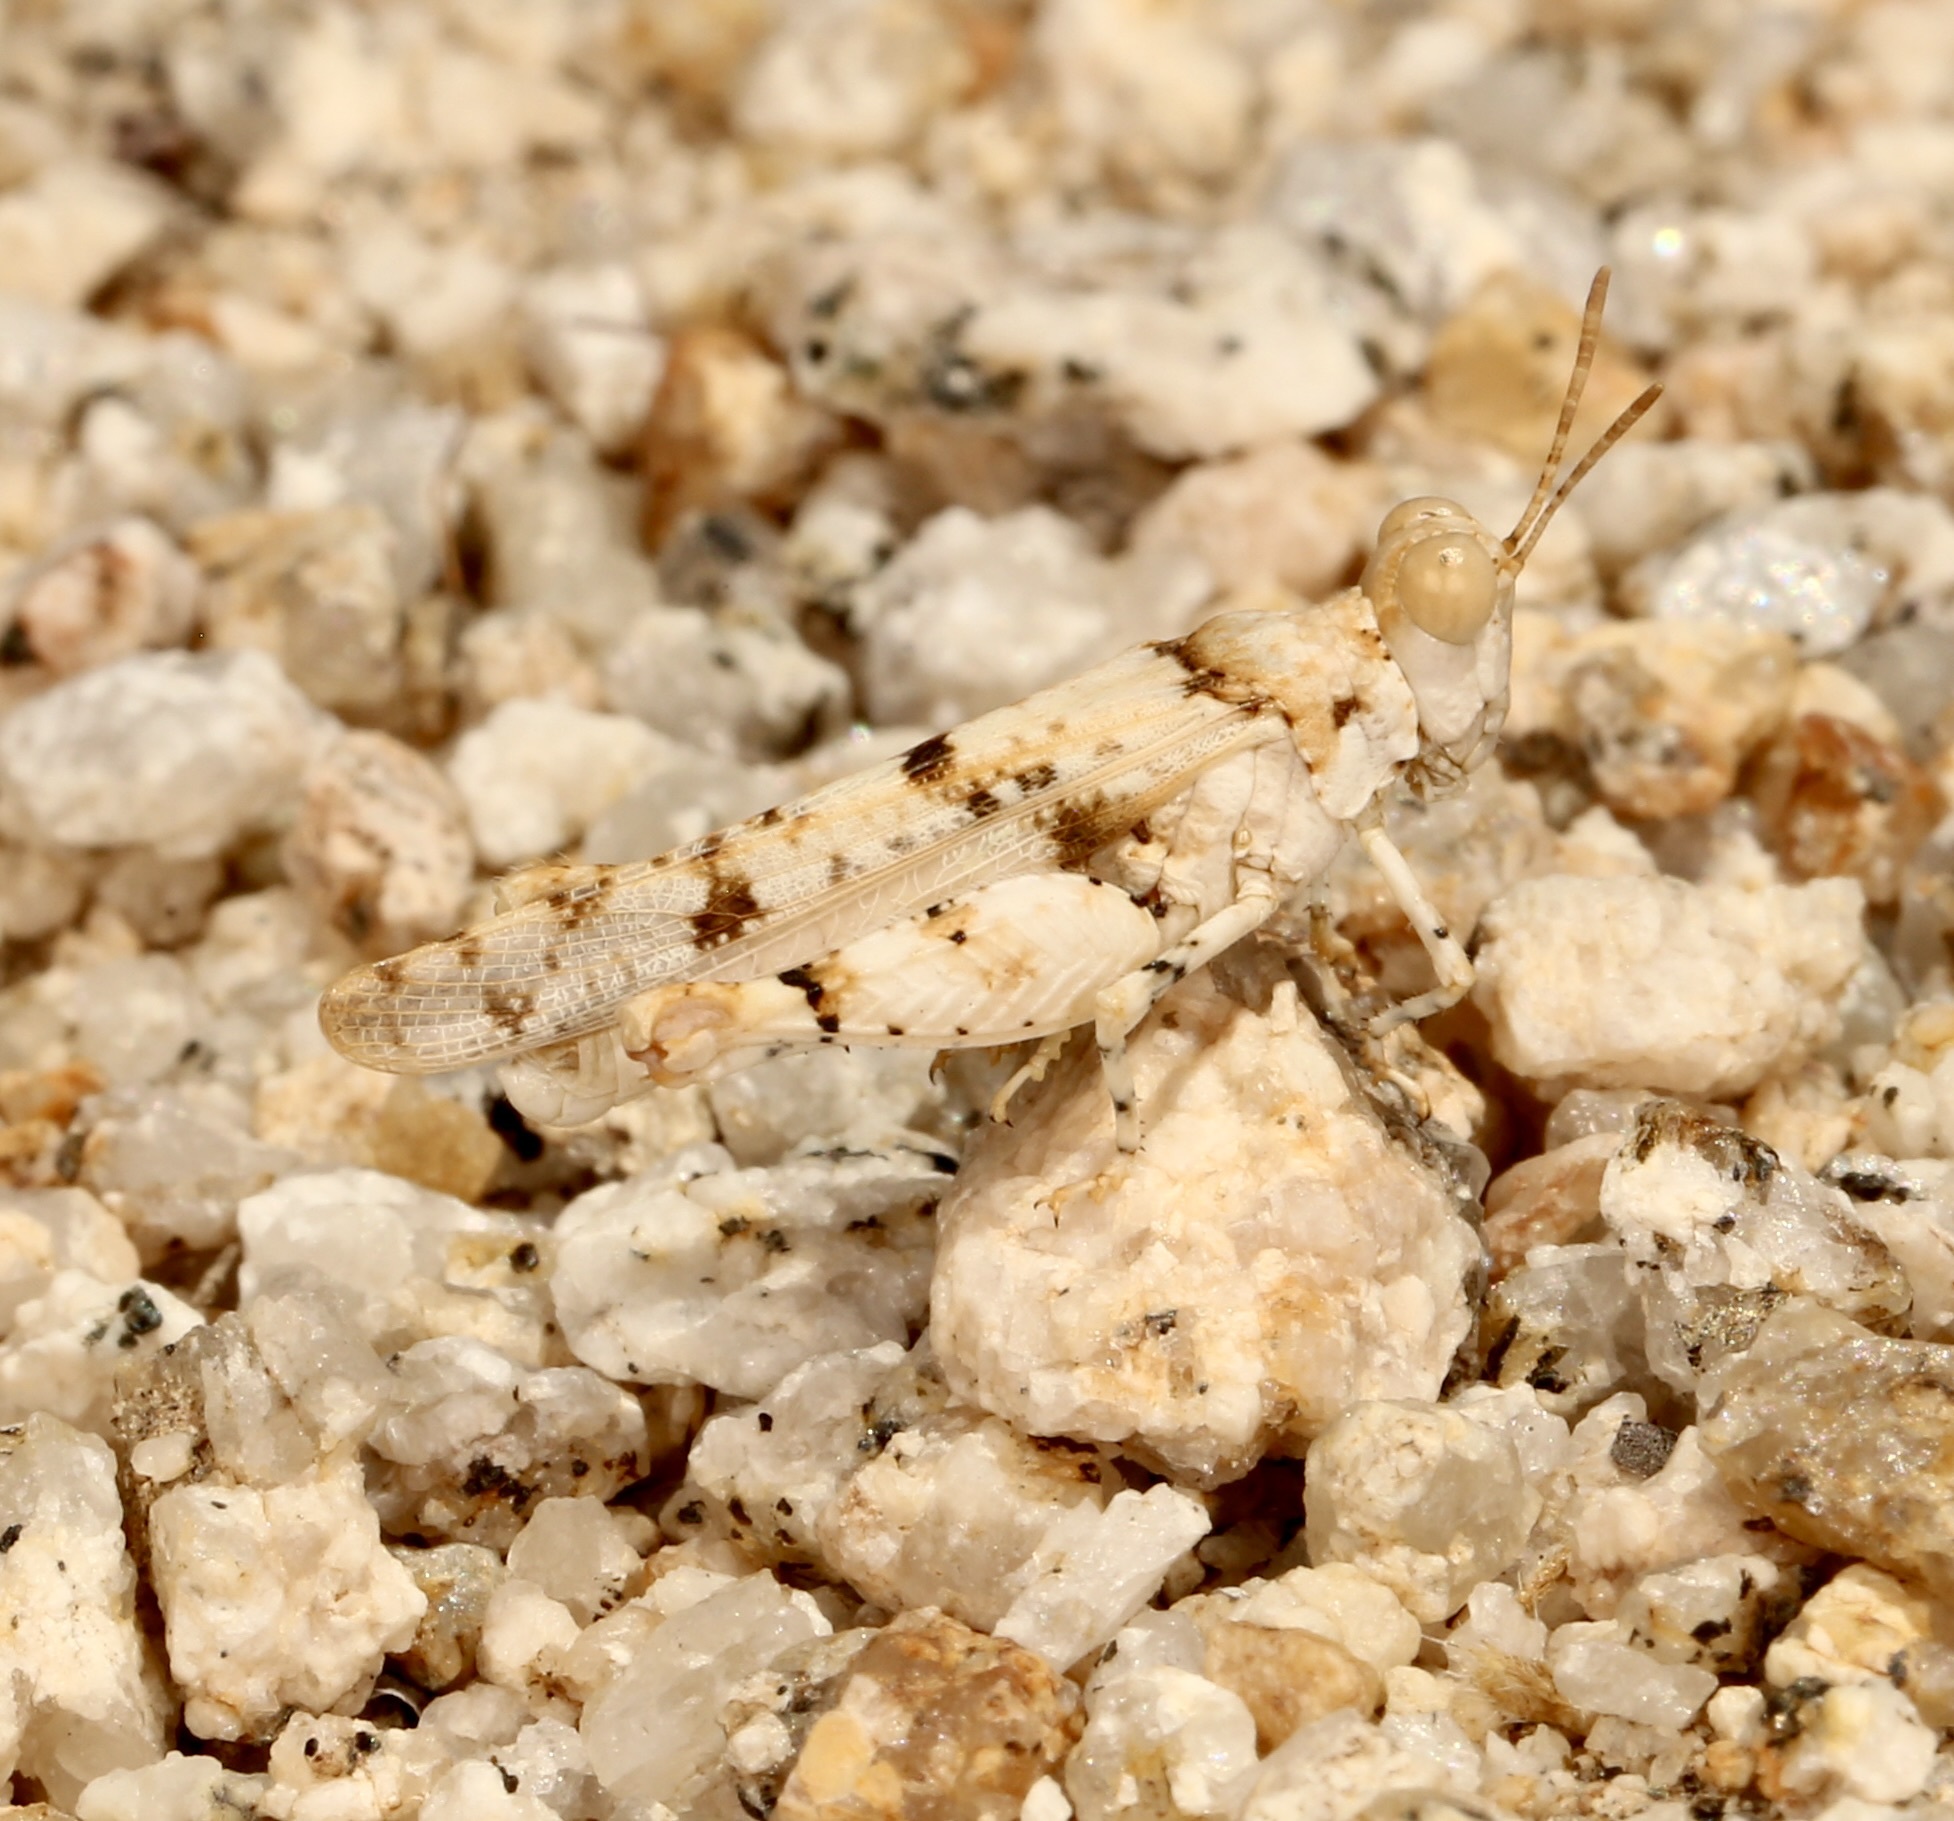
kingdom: Animalia
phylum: Arthropoda
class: Insecta
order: Orthoptera
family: Acrididae
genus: Cibolacris
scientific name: Cibolacris parviceps
